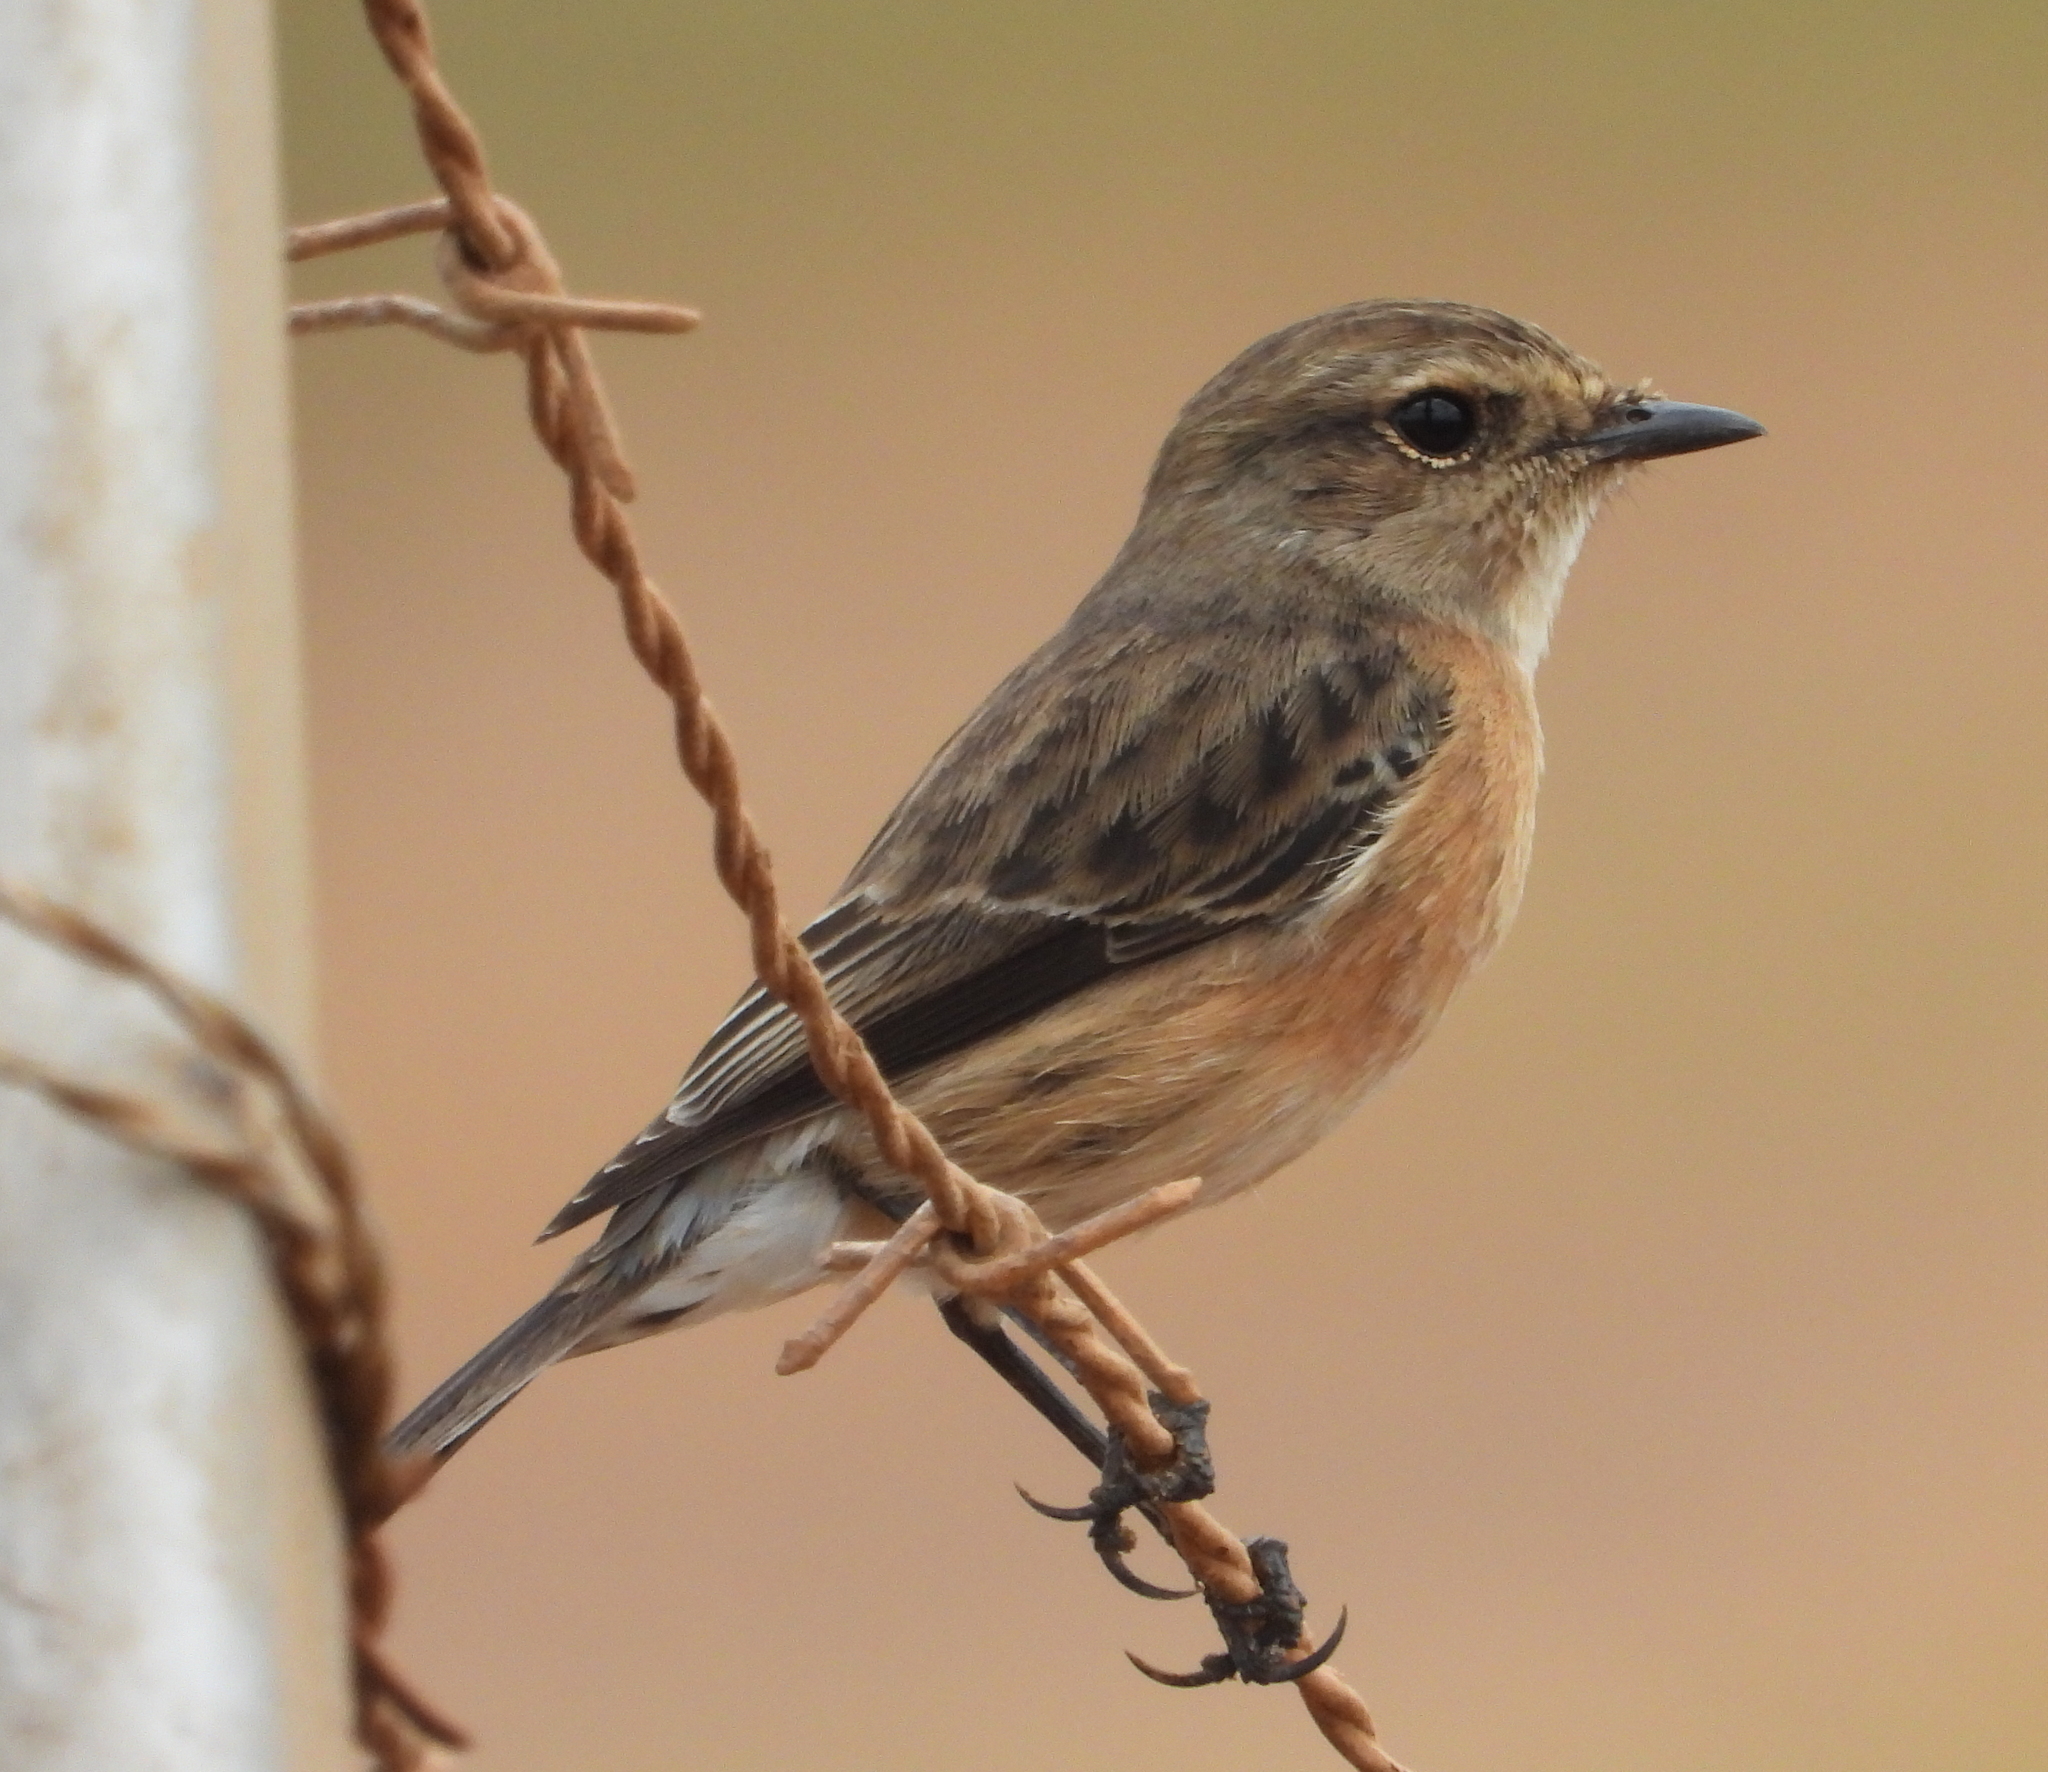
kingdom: Animalia
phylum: Chordata
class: Aves
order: Passeriformes
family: Muscicapidae
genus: Saxicola
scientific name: Saxicola torquatus
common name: African stonechat
